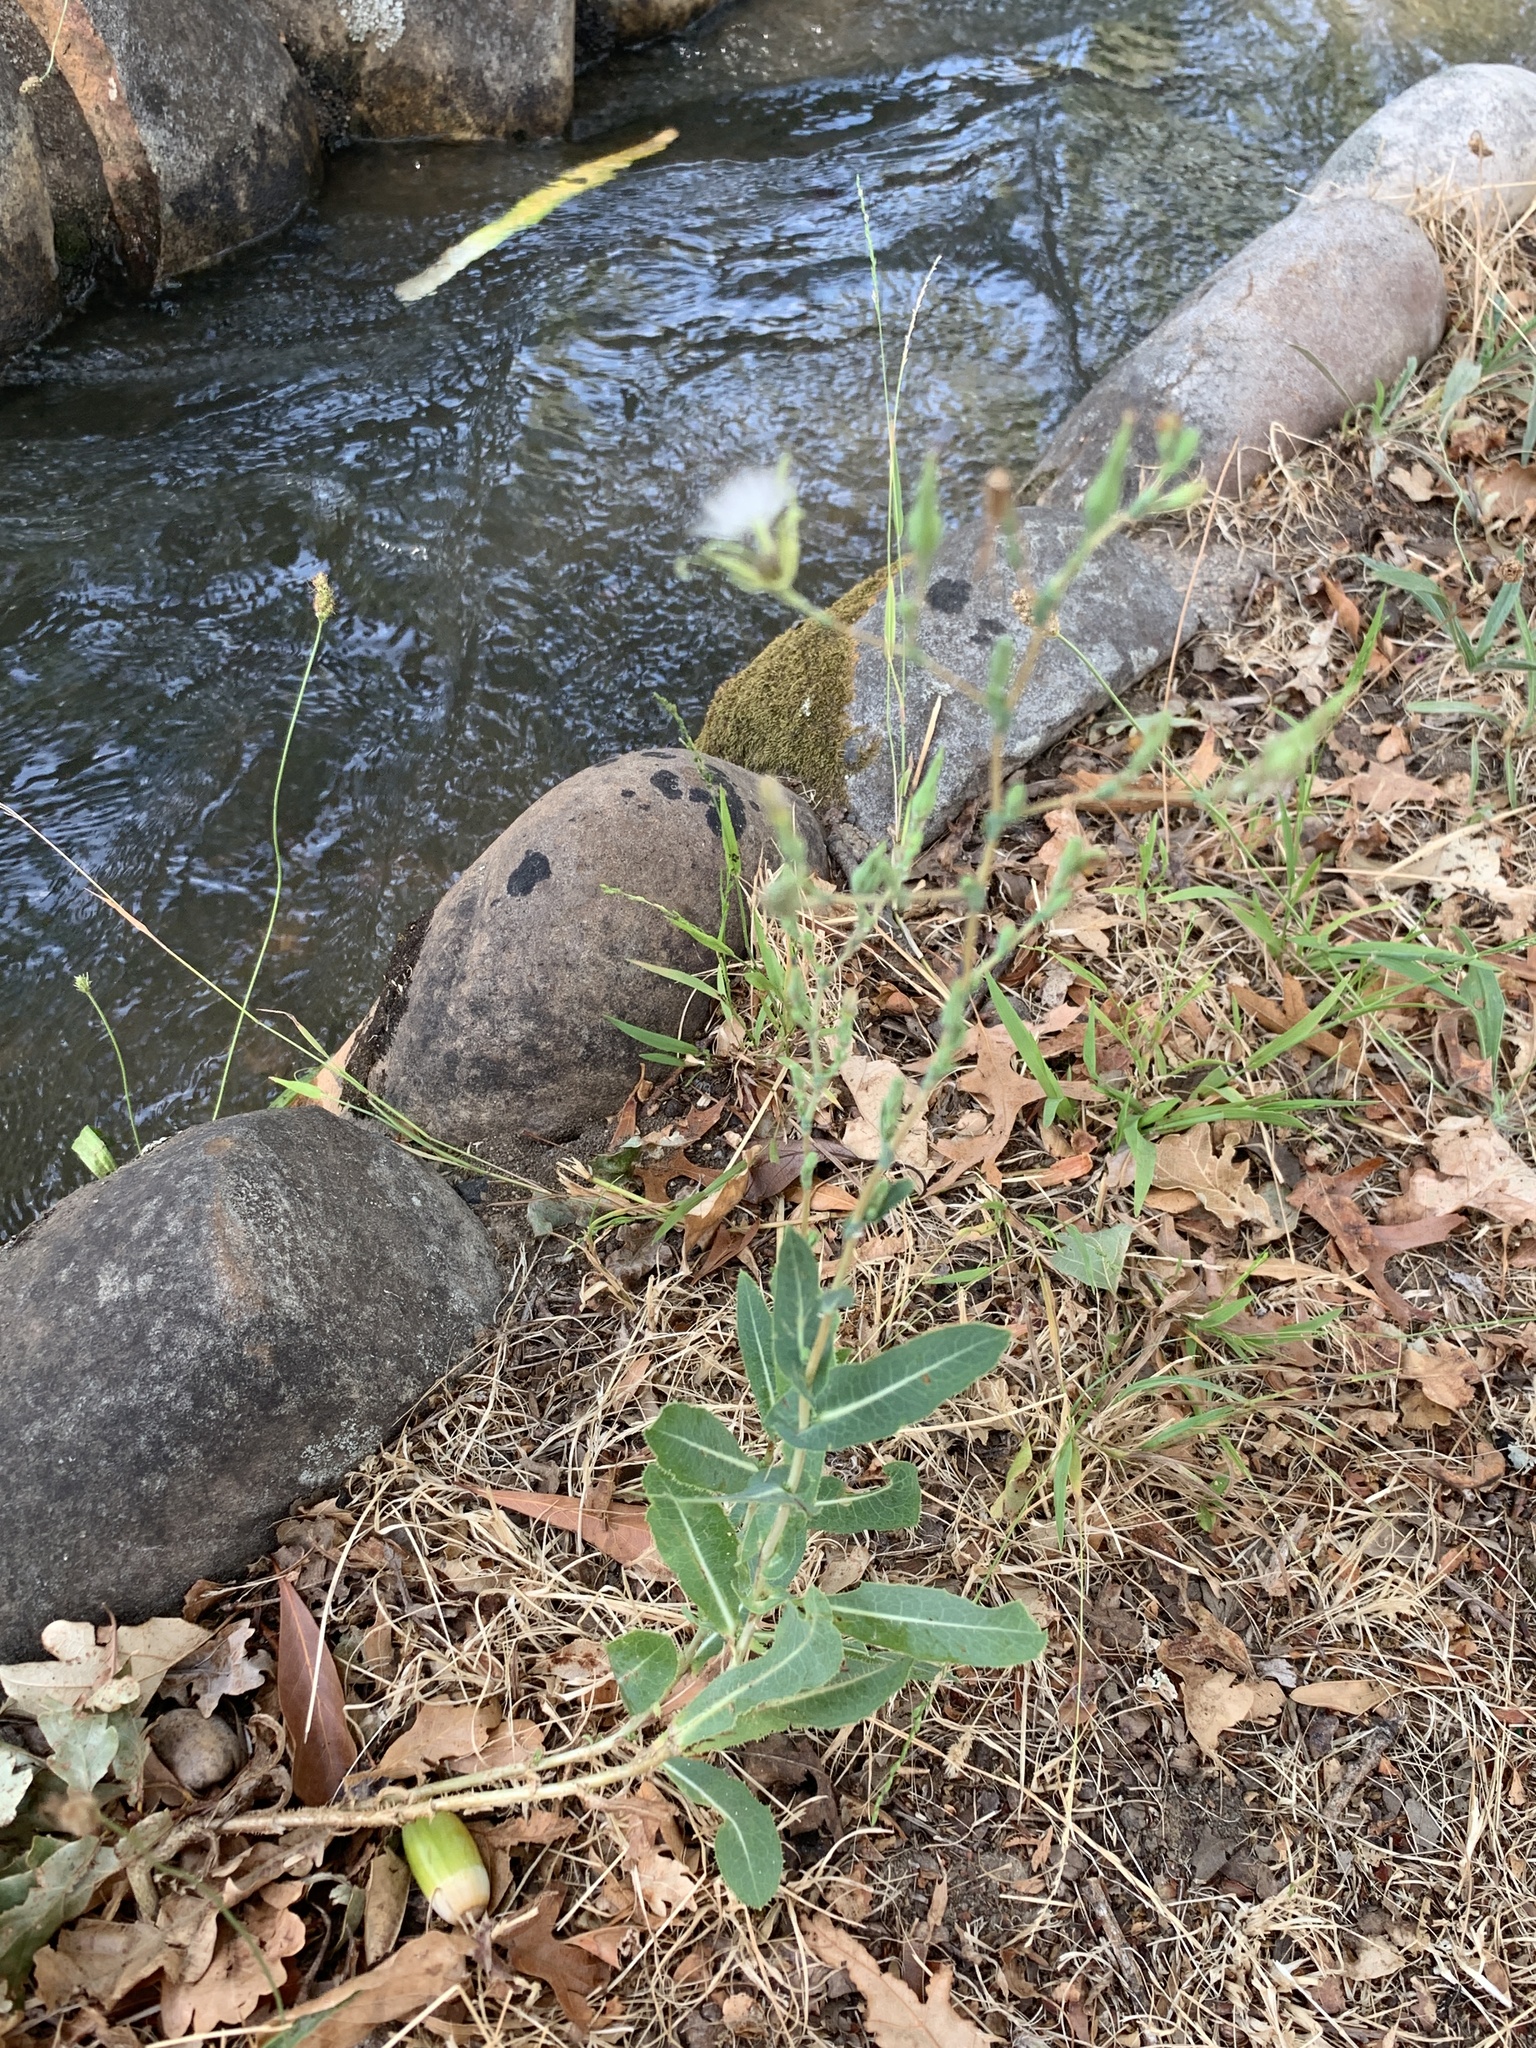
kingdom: Plantae
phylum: Tracheophyta
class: Magnoliopsida
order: Asterales
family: Asteraceae
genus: Lactuca
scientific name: Lactuca serriola
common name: Prickly lettuce
